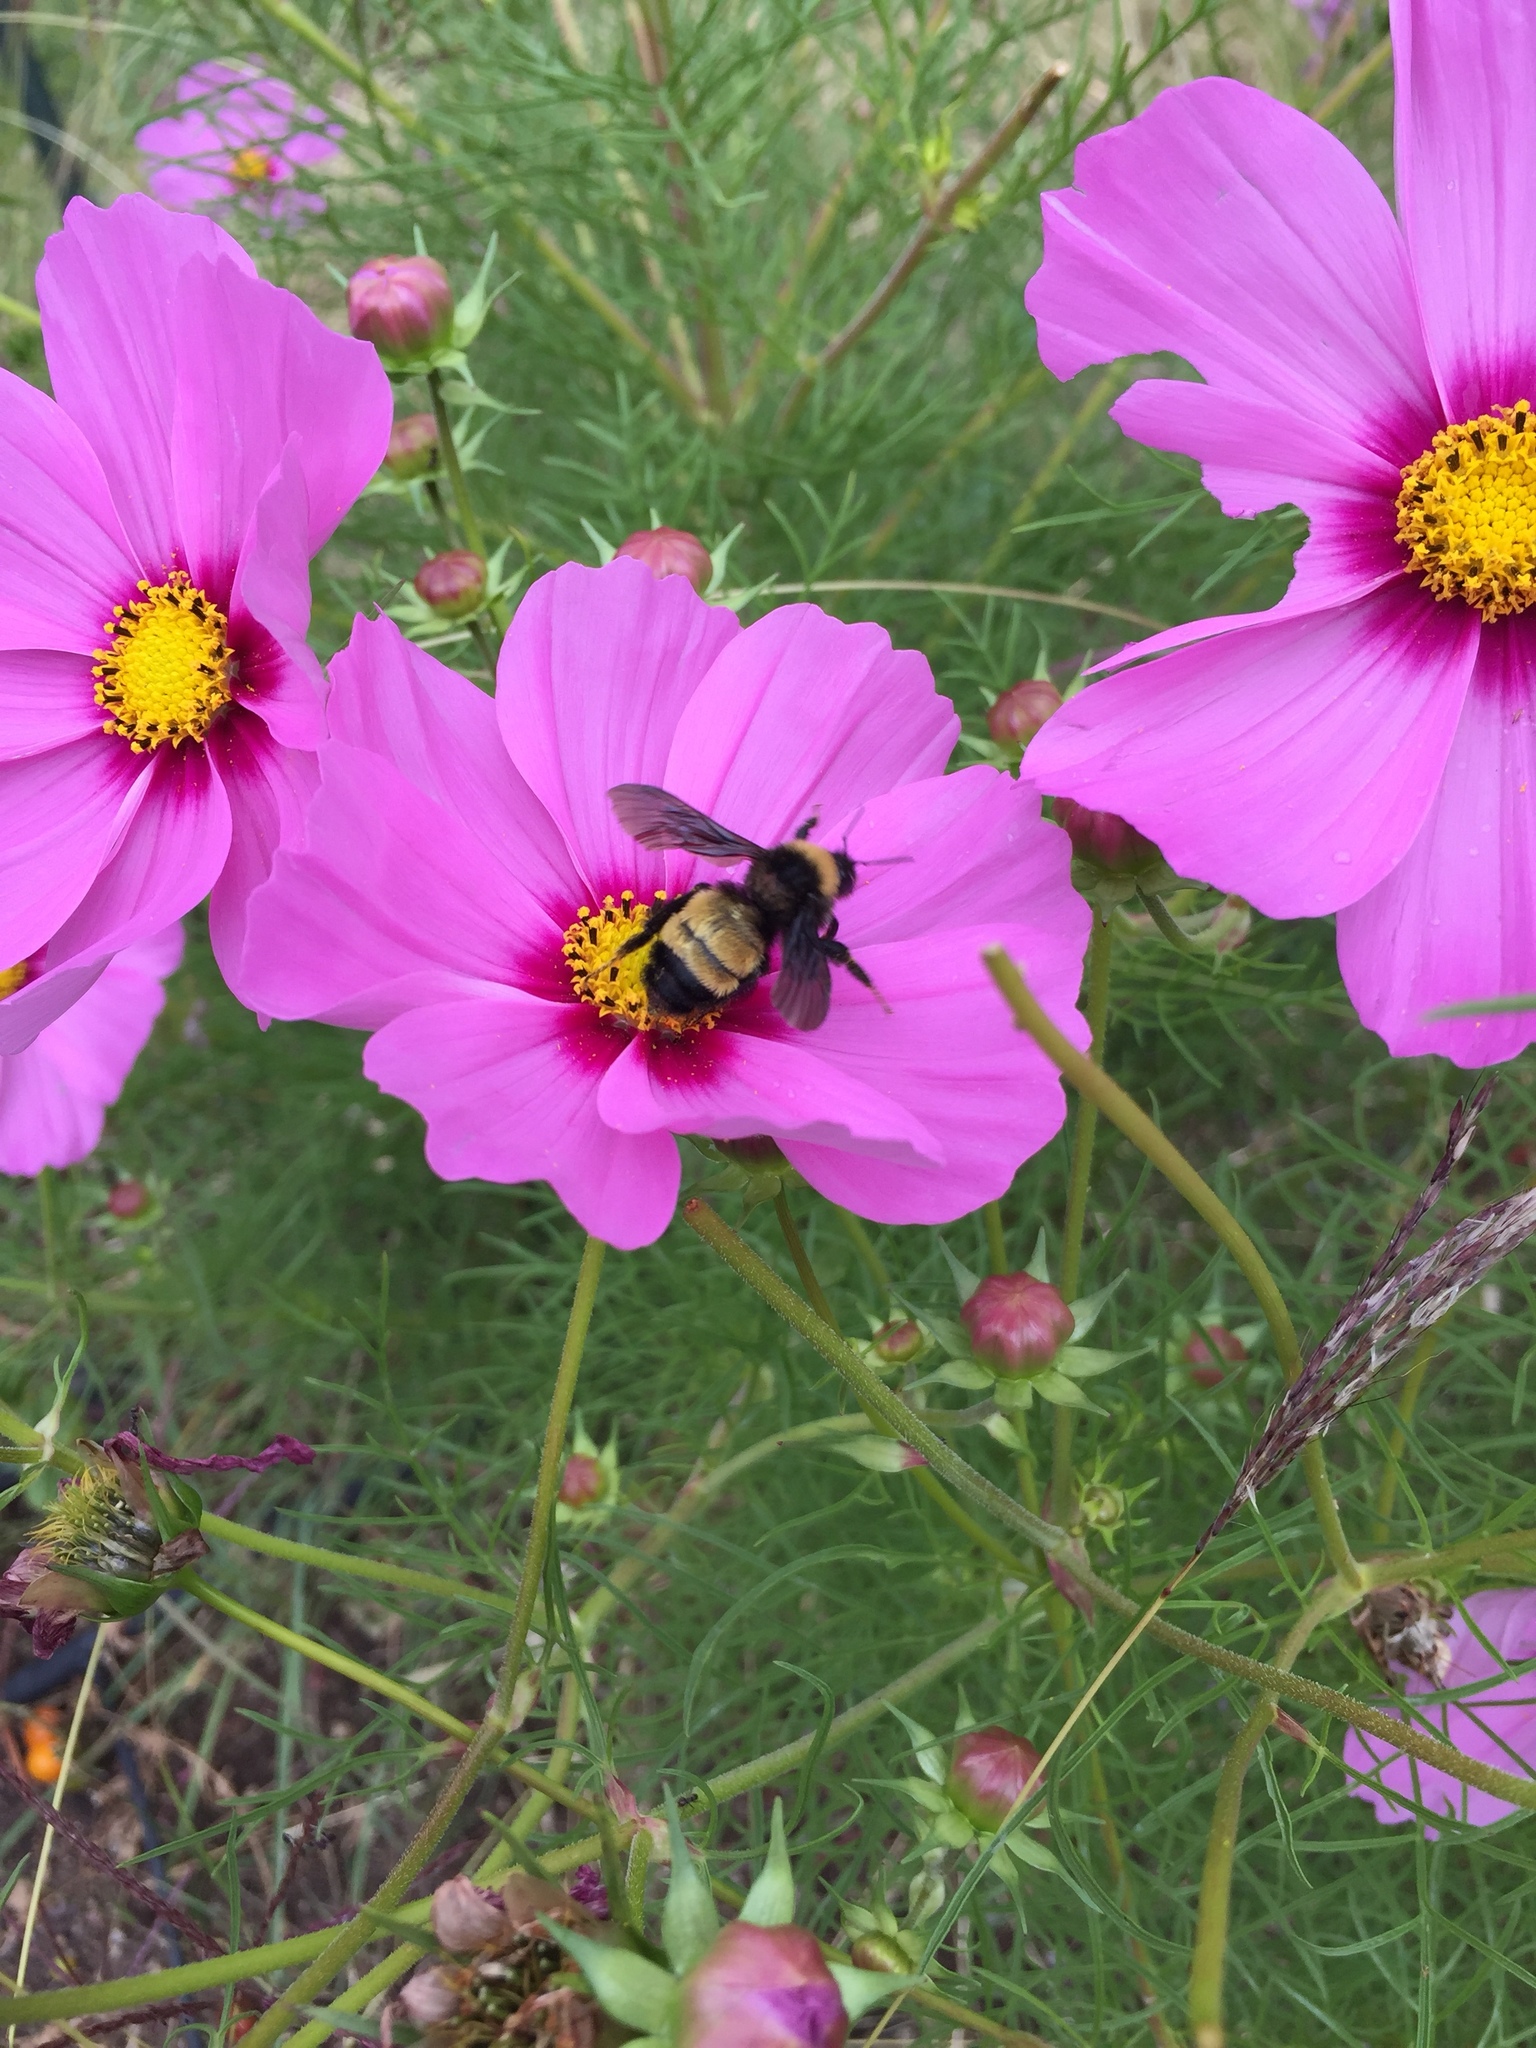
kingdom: Animalia
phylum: Arthropoda
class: Insecta
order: Hymenoptera
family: Apidae
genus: Bombus
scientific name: Bombus pensylvanicus
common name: Bumble bee
